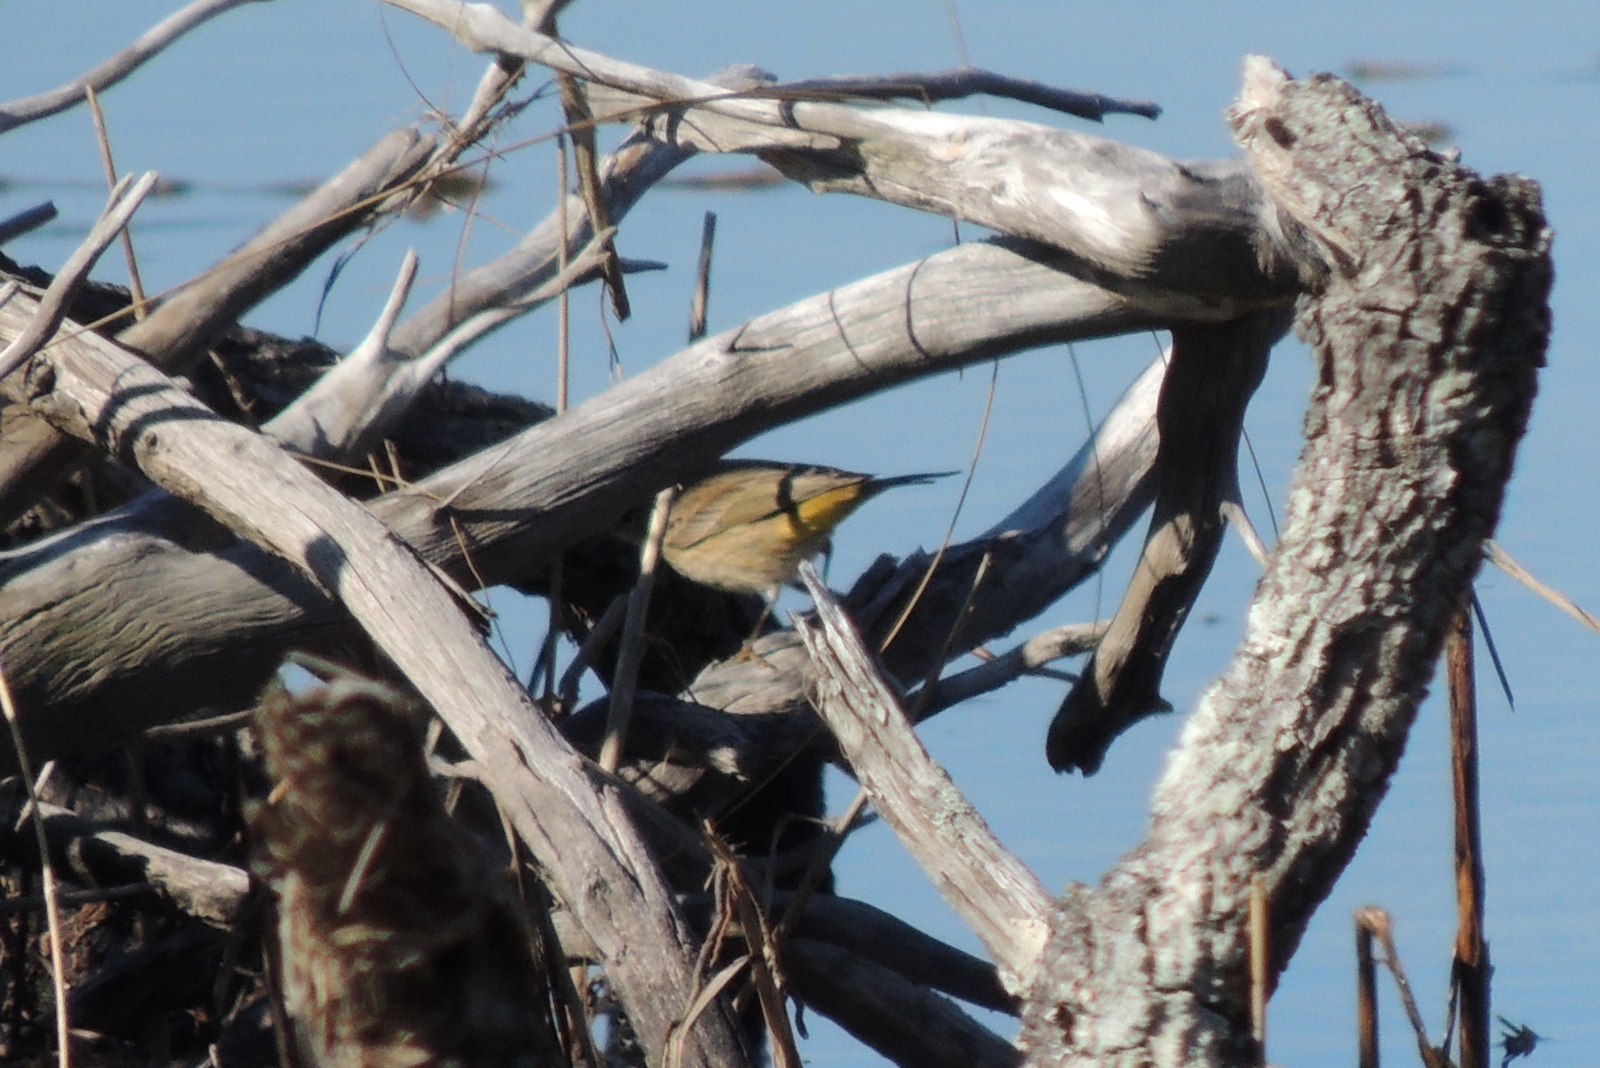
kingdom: Animalia
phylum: Chordata
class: Aves
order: Passeriformes
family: Parulidae
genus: Setophaga
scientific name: Setophaga palmarum
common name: Palm warbler
